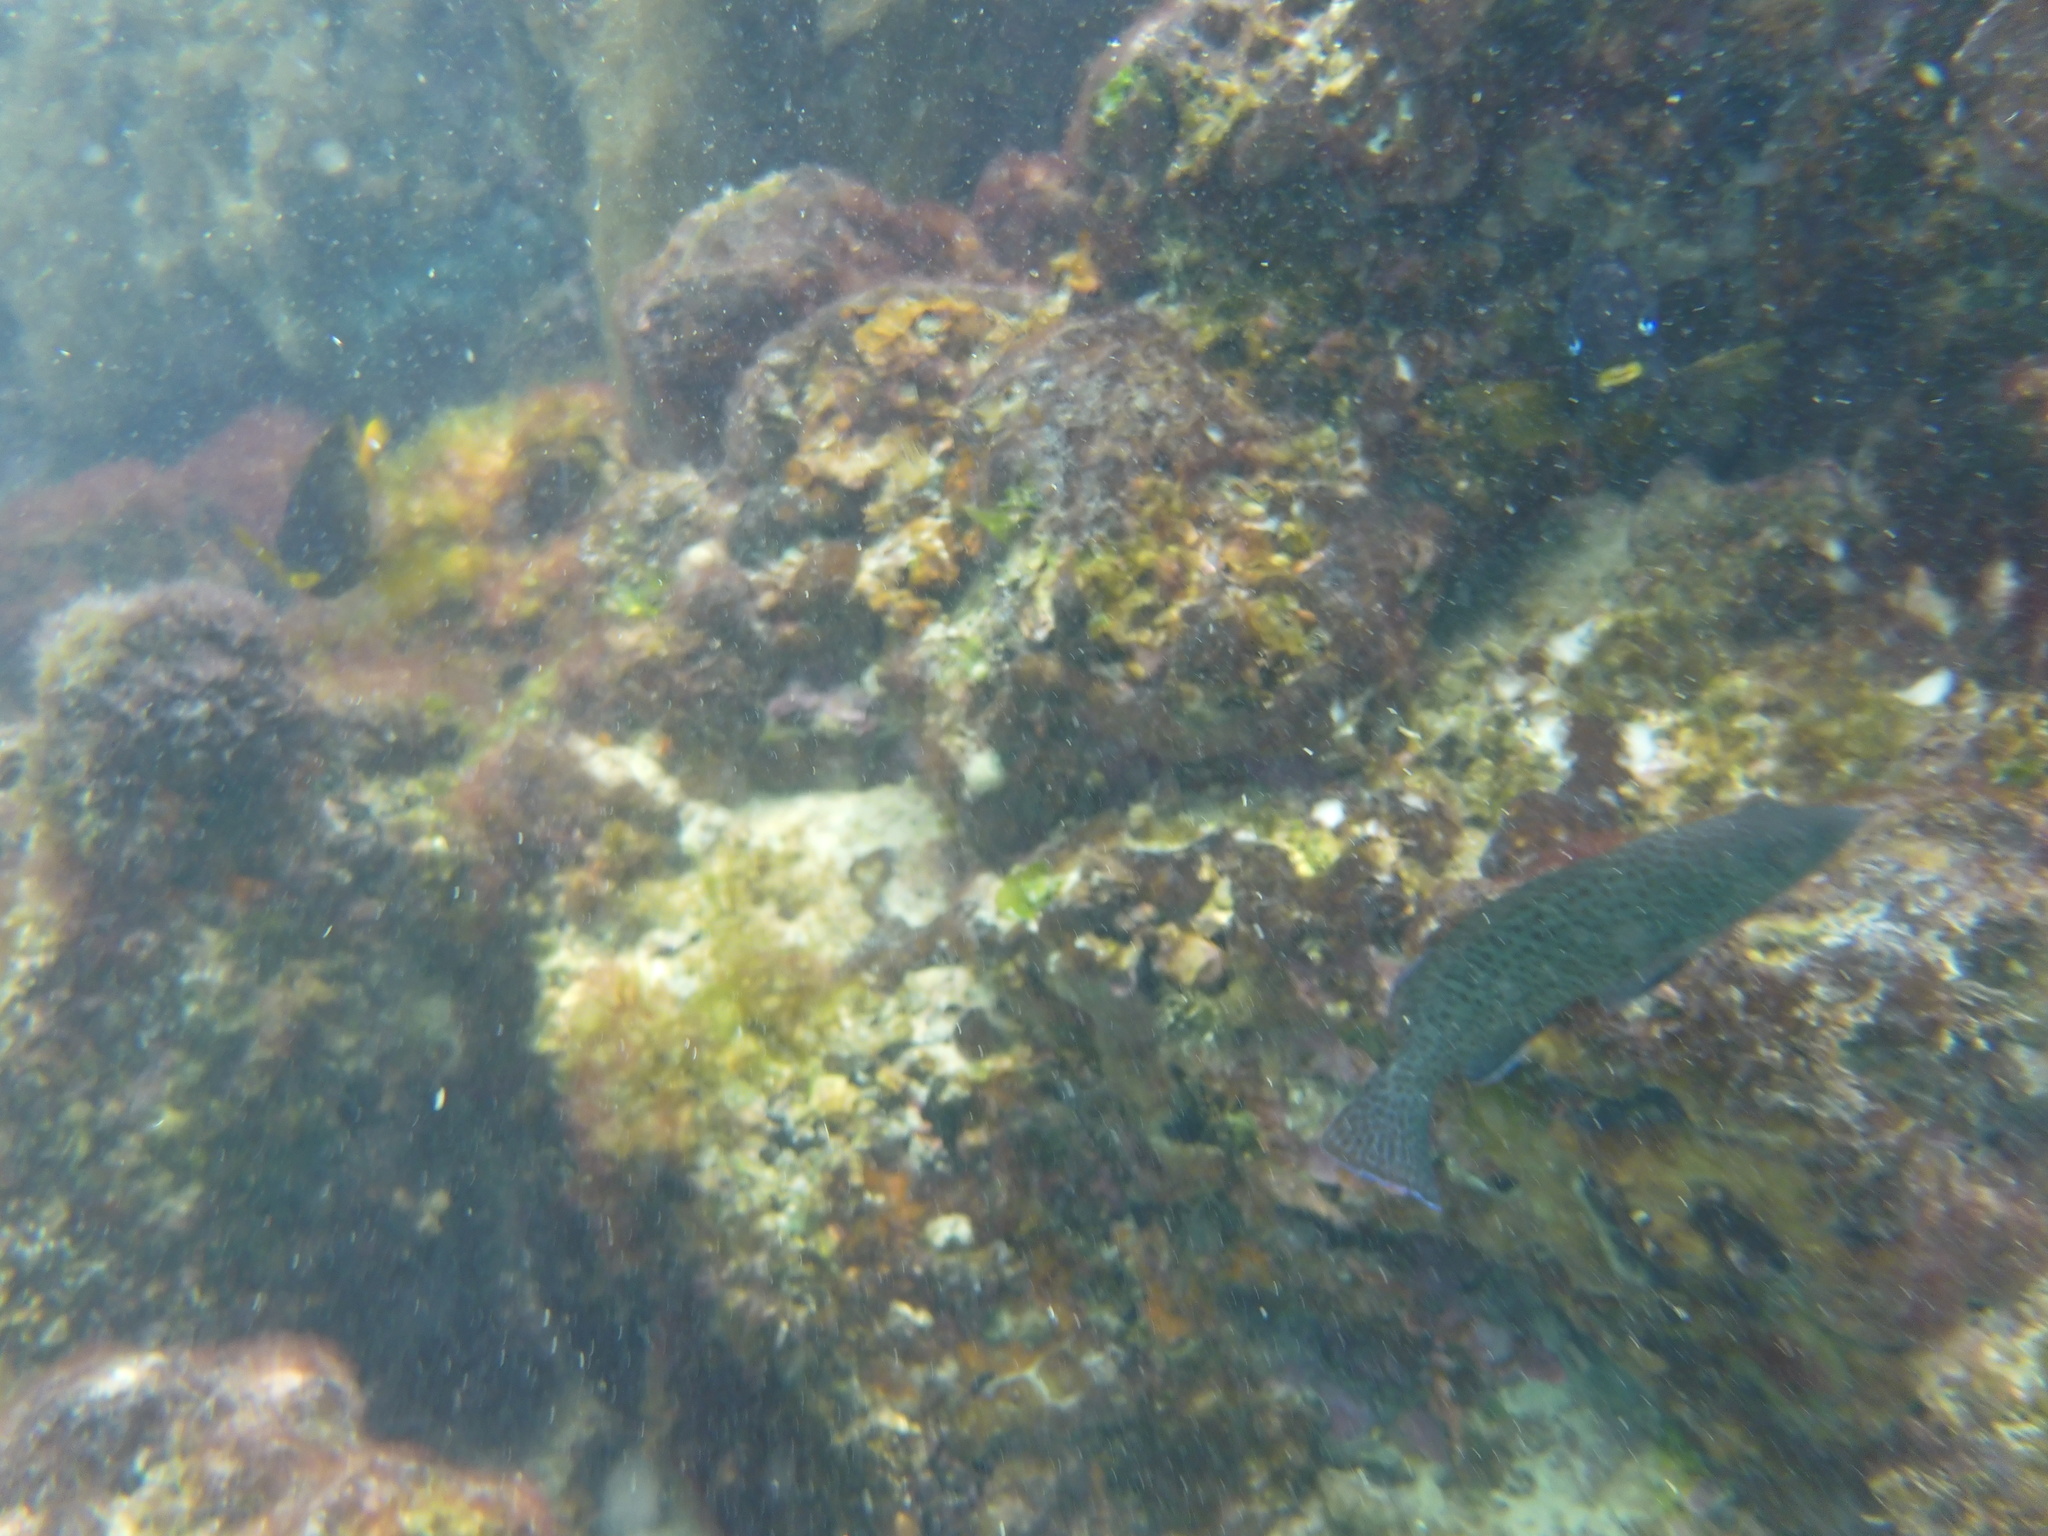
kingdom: Animalia
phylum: Chordata
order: Perciformes
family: Serranidae
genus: Dermatolepis
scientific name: Dermatolepis dermatolepis
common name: Leather bass
